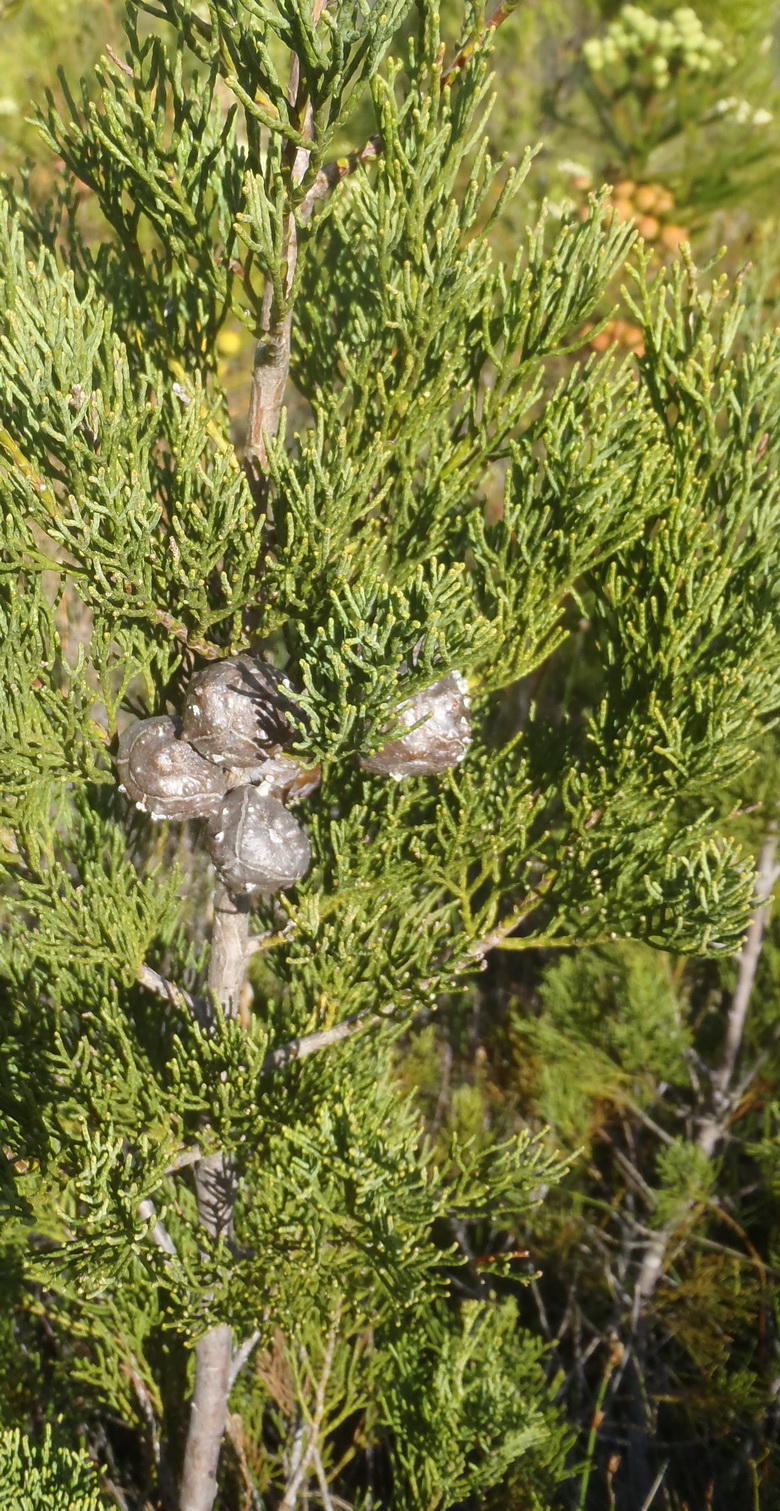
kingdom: Plantae
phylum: Tracheophyta
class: Pinopsida
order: Pinales
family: Cupressaceae
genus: Widdringtonia
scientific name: Widdringtonia nodiflora
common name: Cape cypress
